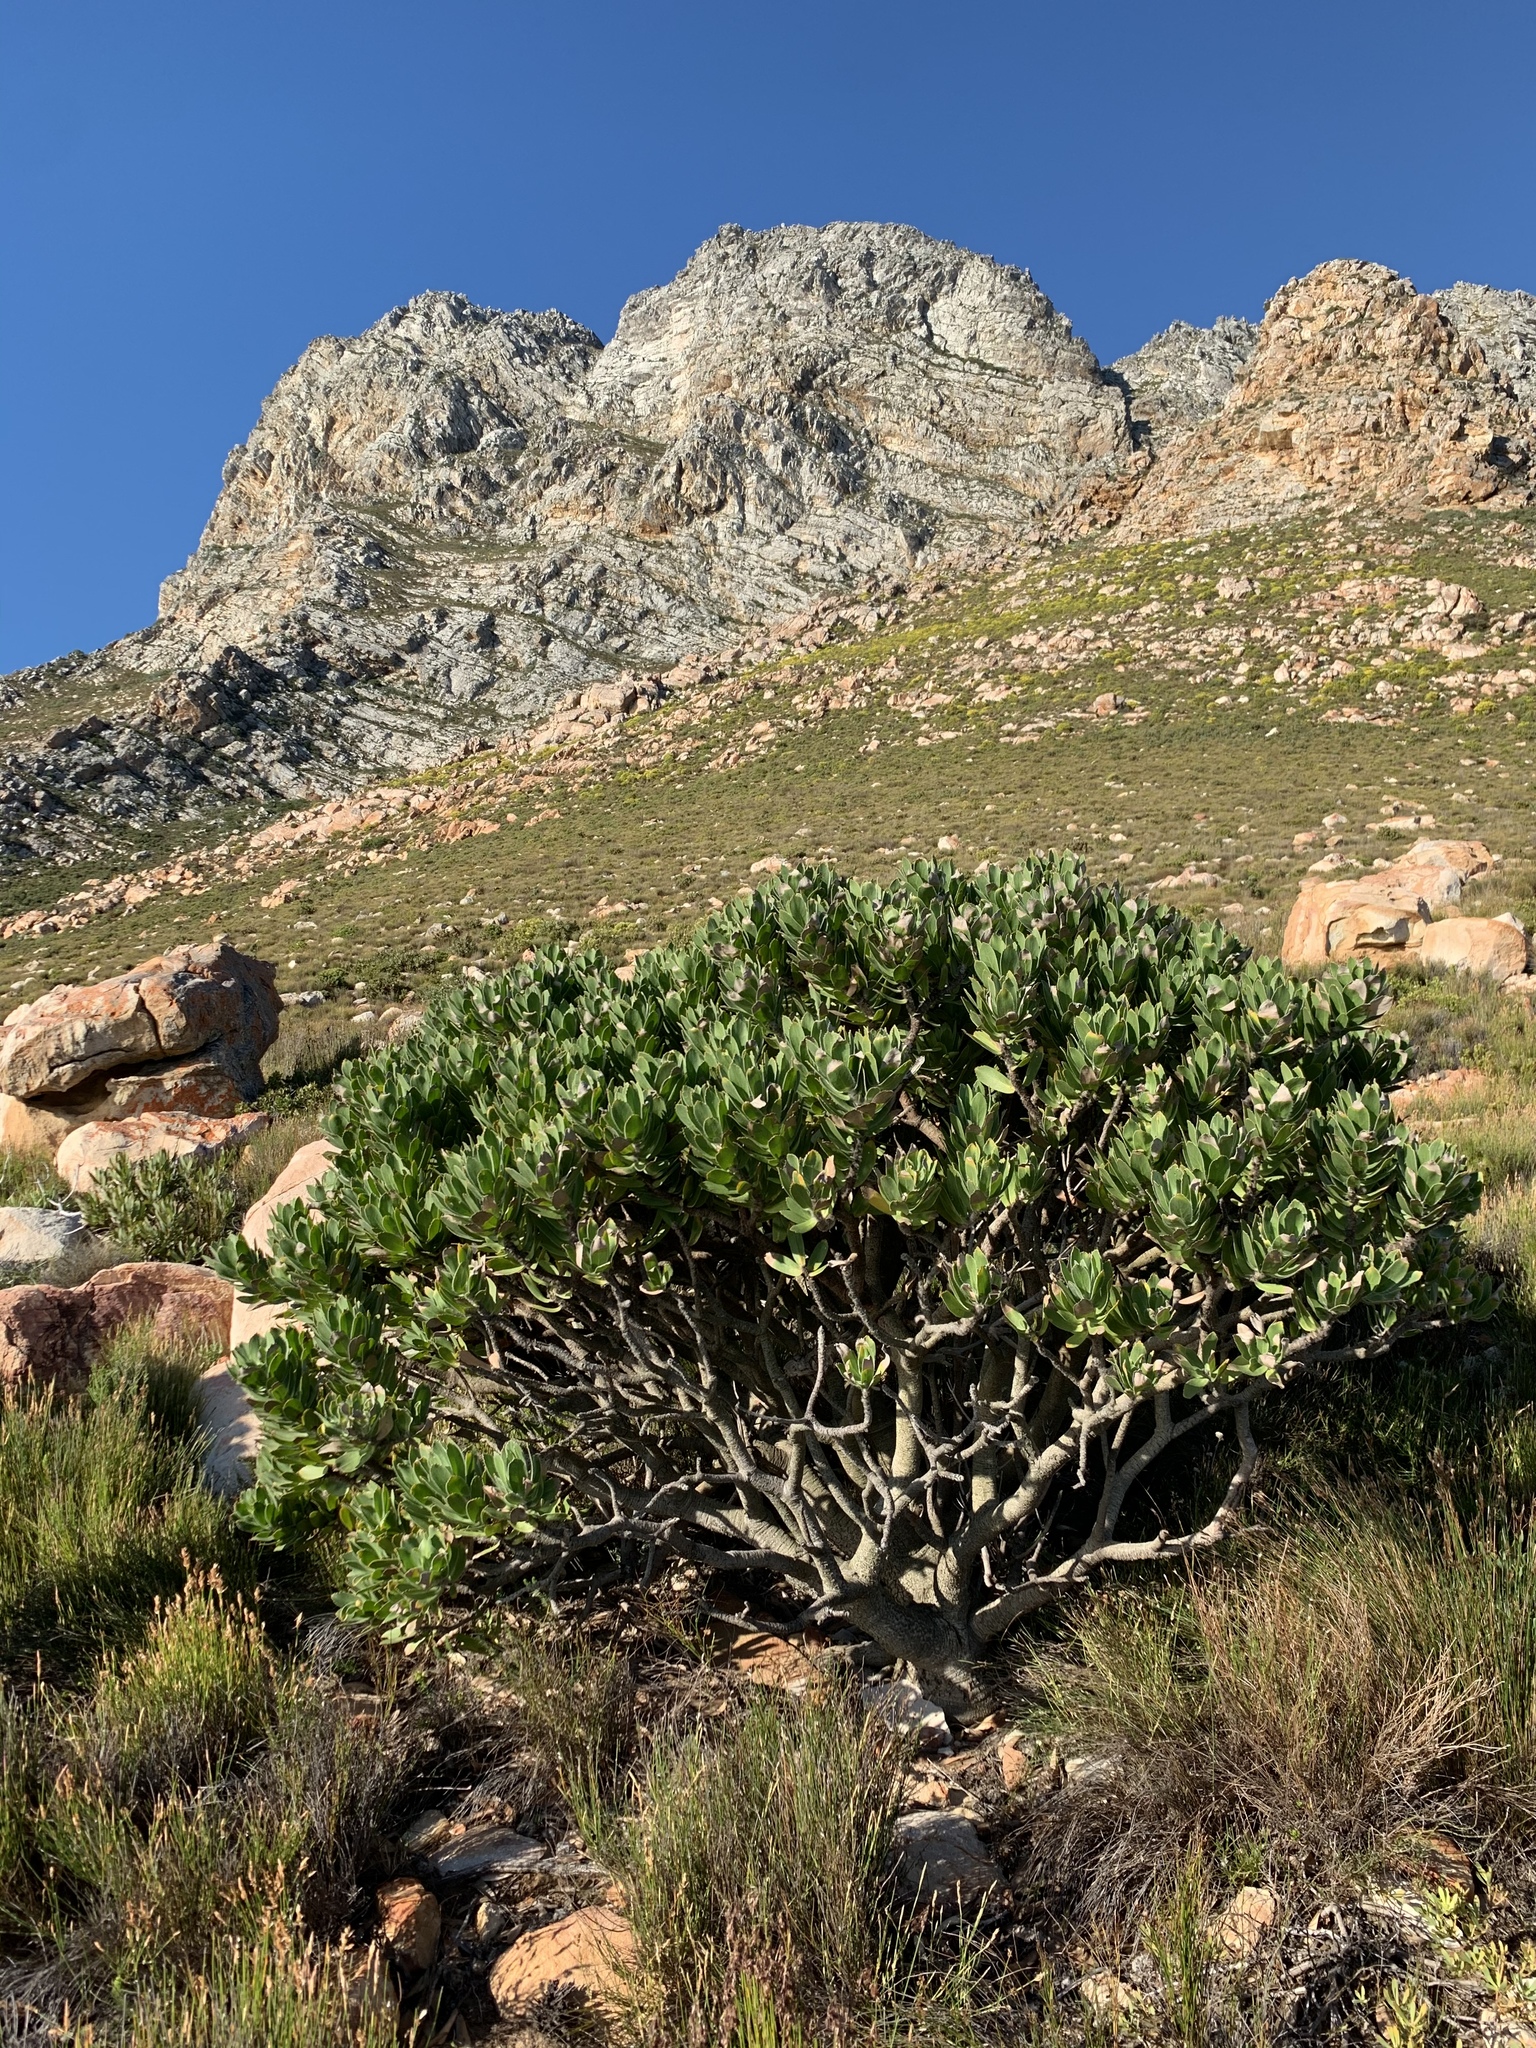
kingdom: Plantae
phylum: Tracheophyta
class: Magnoliopsida
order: Proteales
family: Proteaceae
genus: Leucospermum
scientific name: Leucospermum conocarpodendron
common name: Tree pincushion
